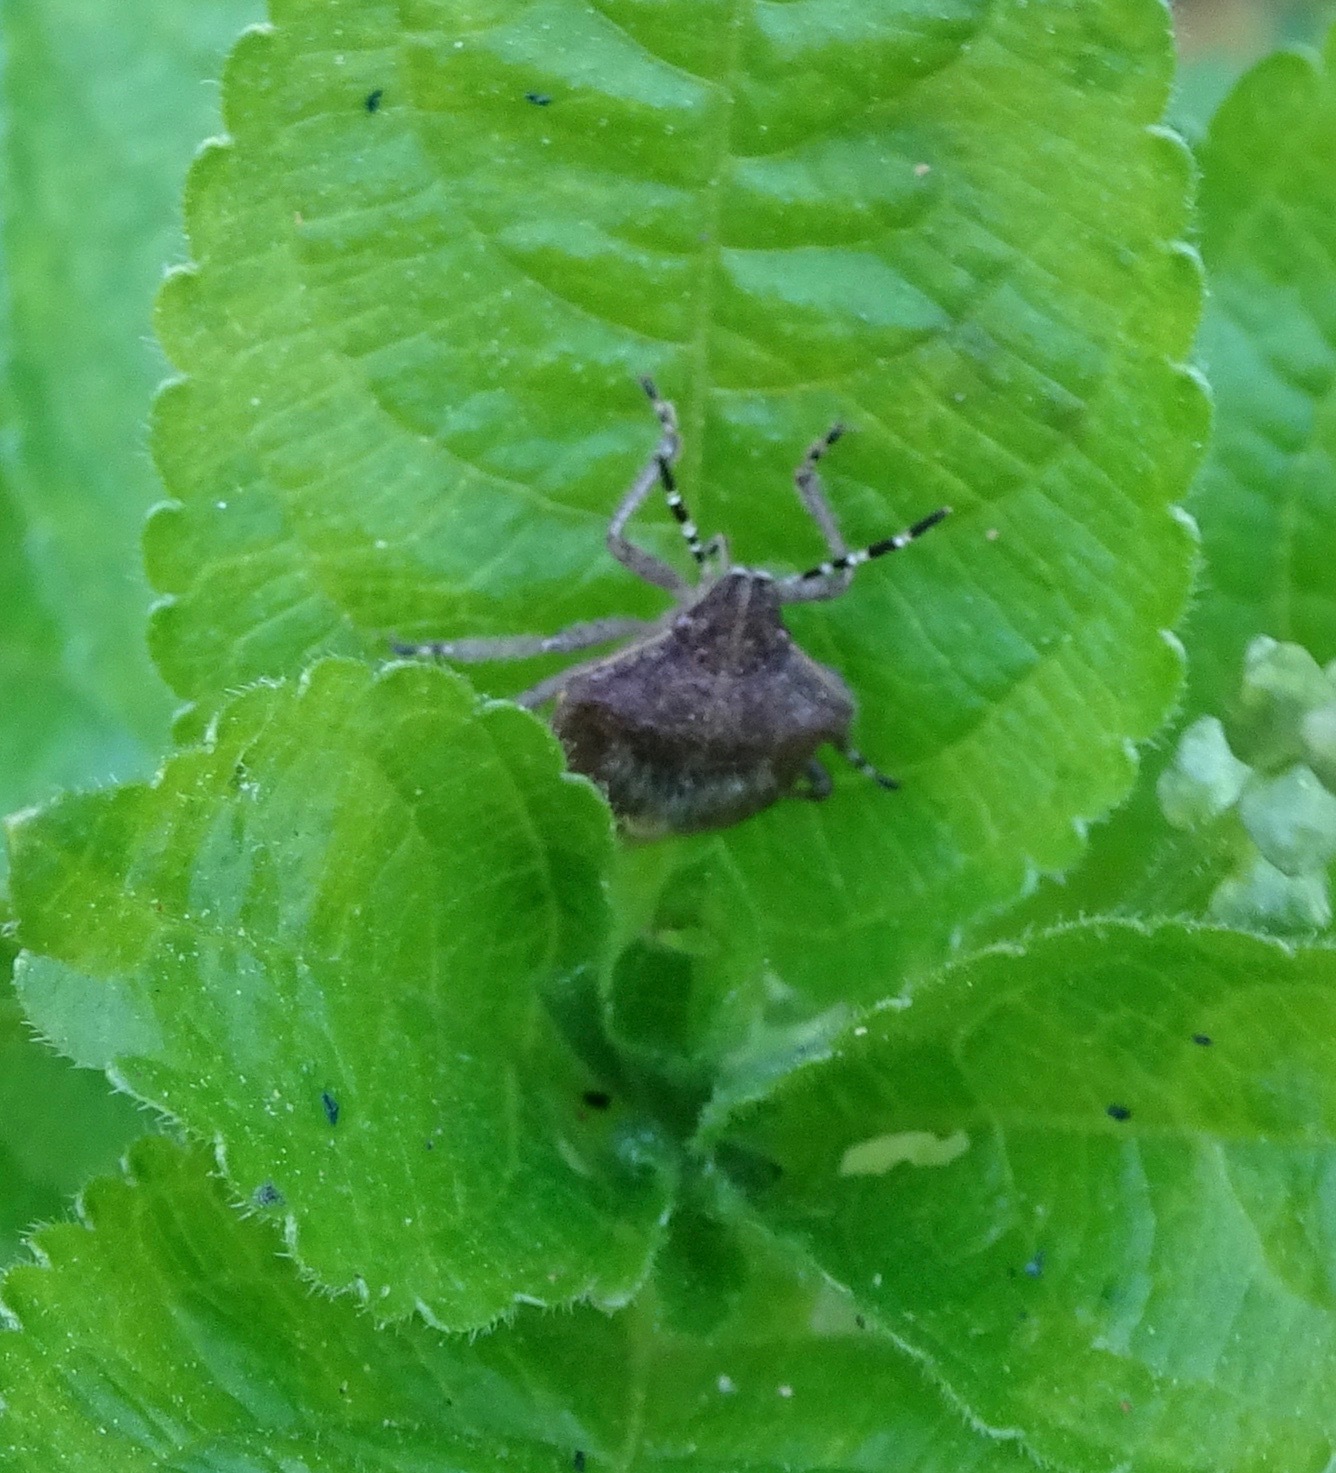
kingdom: Animalia
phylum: Arthropoda
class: Insecta
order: Hemiptera
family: Pentatomidae
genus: Dolycoris
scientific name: Dolycoris baccarum
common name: Sloe bug
